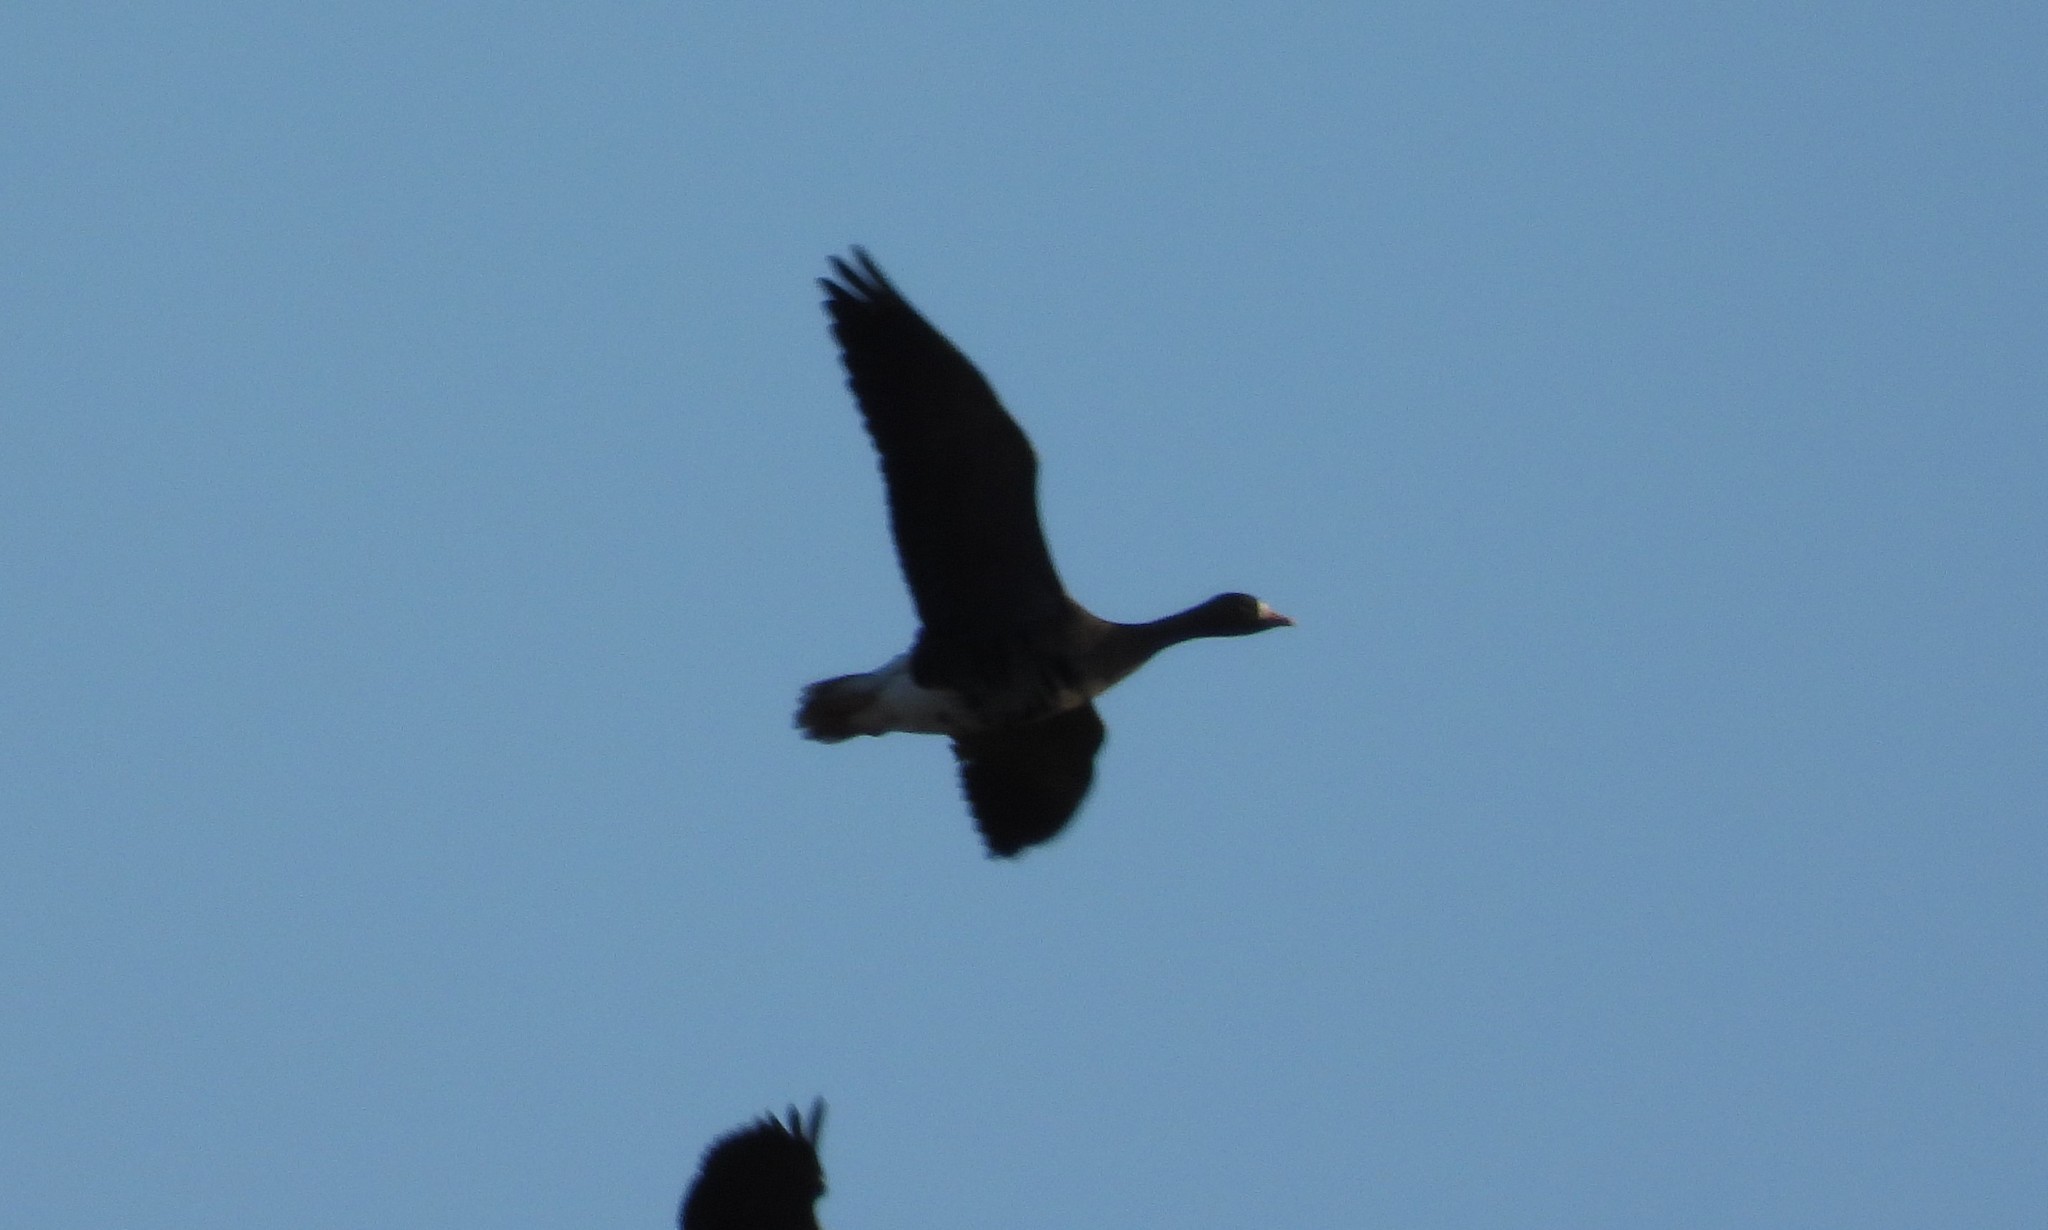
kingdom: Animalia
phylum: Chordata
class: Aves
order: Anseriformes
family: Anatidae
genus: Anser
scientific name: Anser albifrons
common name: Greater white-fronted goose
